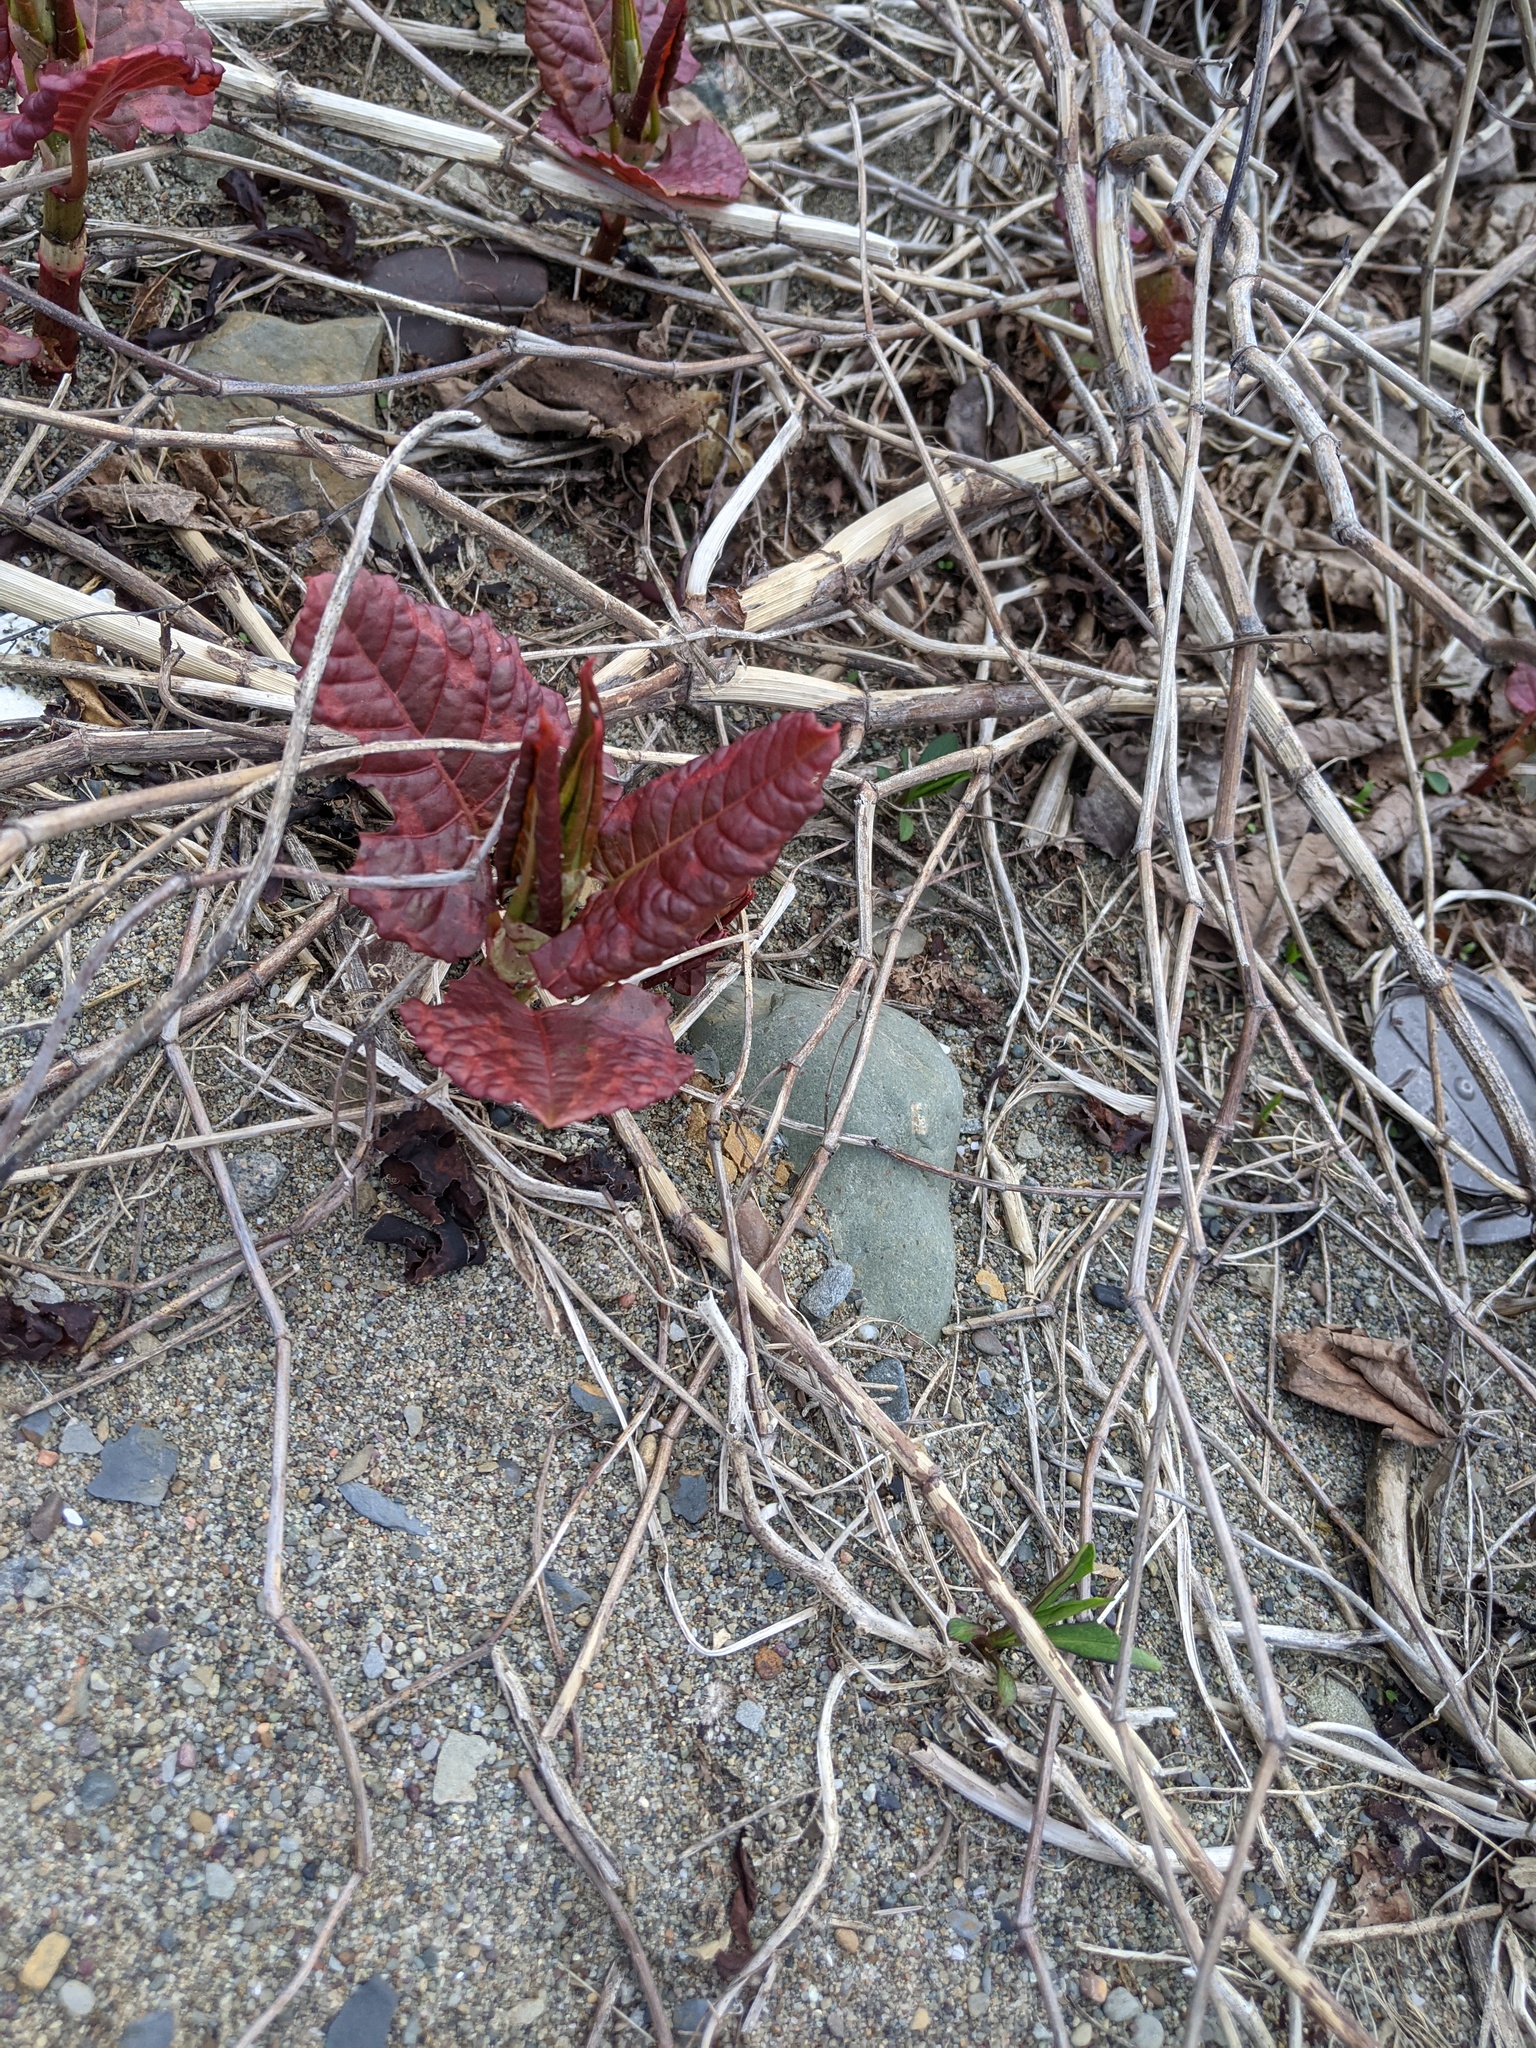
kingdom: Plantae
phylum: Tracheophyta
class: Magnoliopsida
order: Caryophyllales
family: Polygonaceae
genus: Reynoutria
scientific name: Reynoutria japonica
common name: Japanese knotweed
